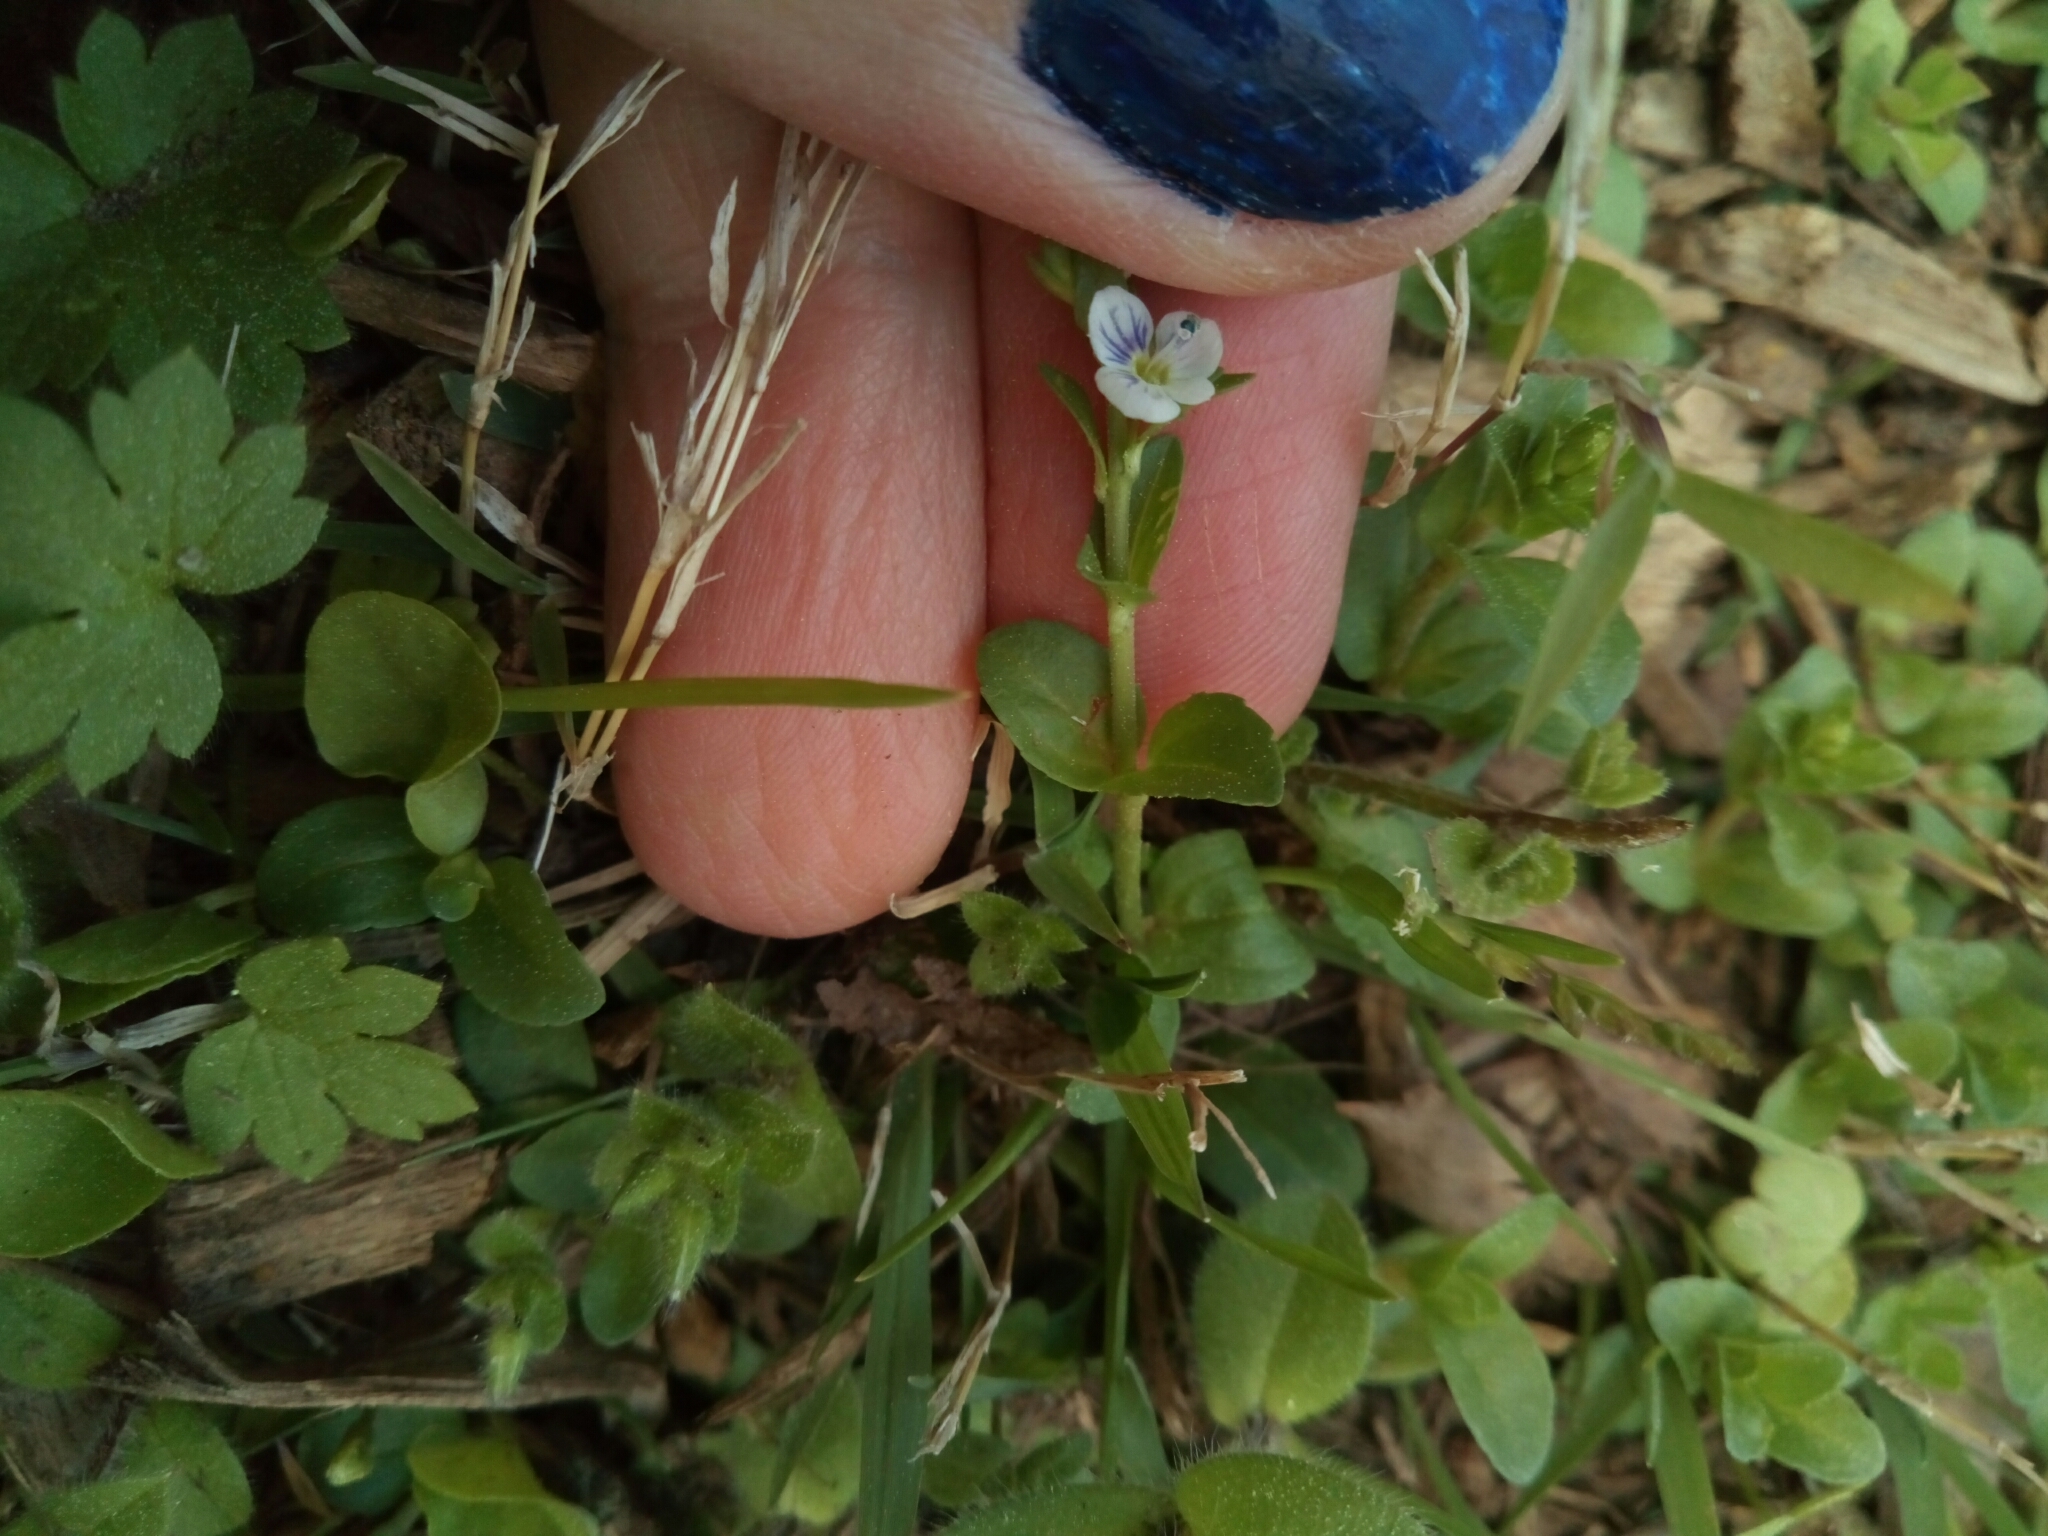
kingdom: Plantae
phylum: Tracheophyta
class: Magnoliopsida
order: Lamiales
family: Plantaginaceae
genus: Veronica
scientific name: Veronica serpyllifolia
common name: Thyme-leaved speedwell
